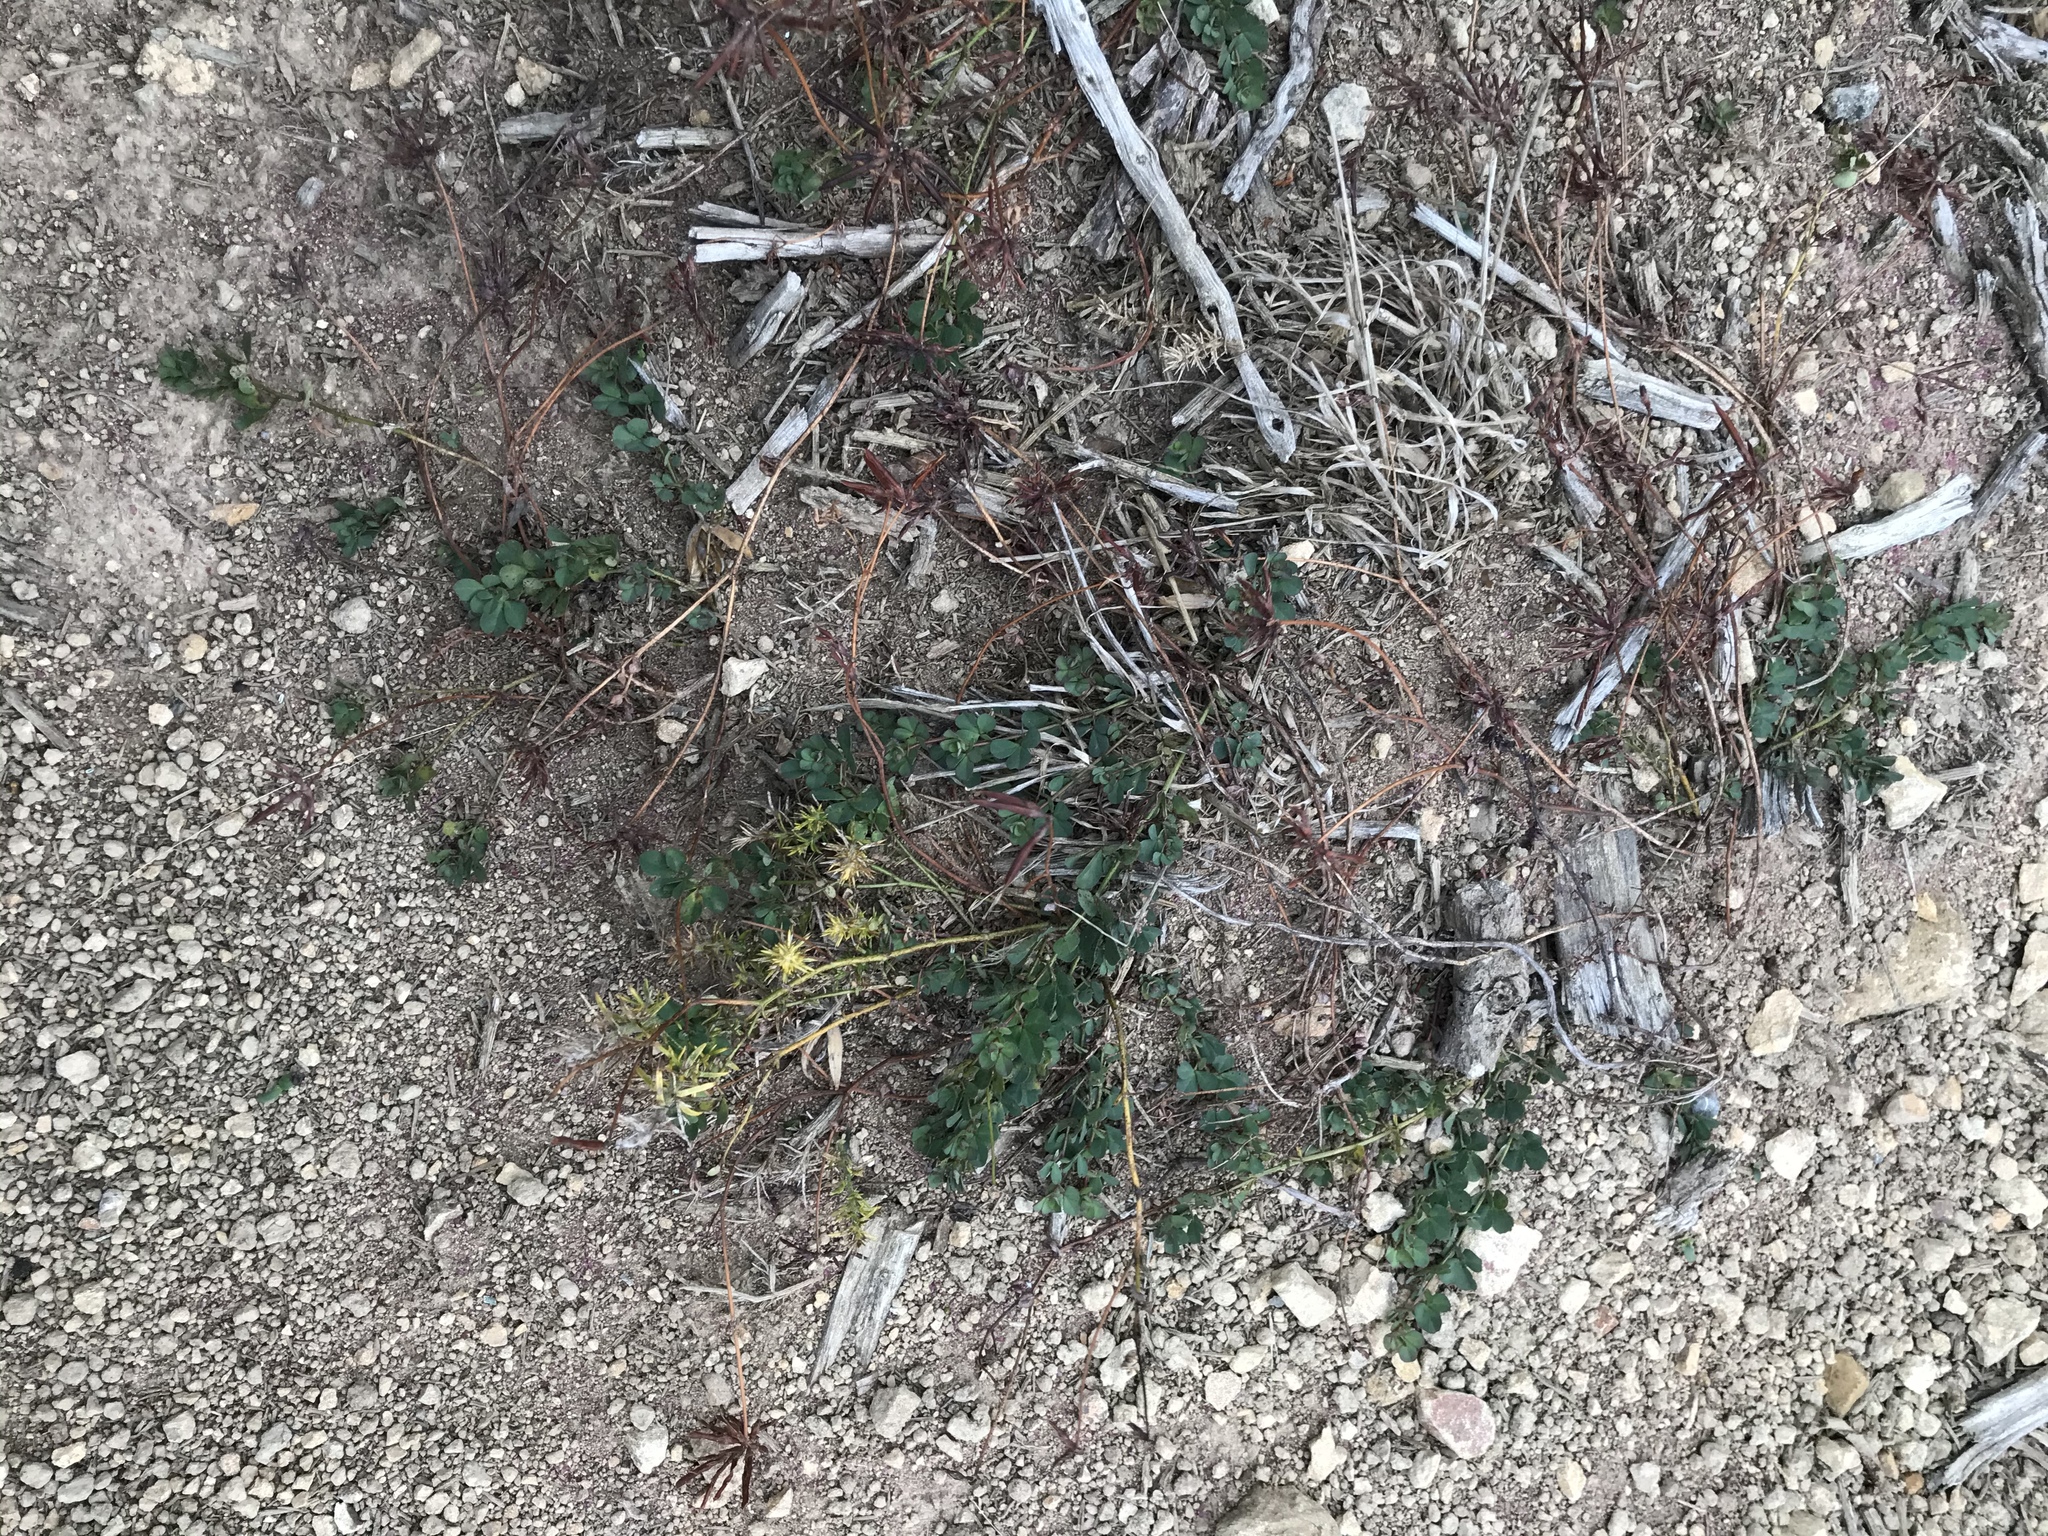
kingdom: Plantae
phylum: Tracheophyta
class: Magnoliopsida
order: Fabales
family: Fabaceae
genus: Lotus
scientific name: Lotus pedunculatus
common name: Greater birdsfoot-trefoil
